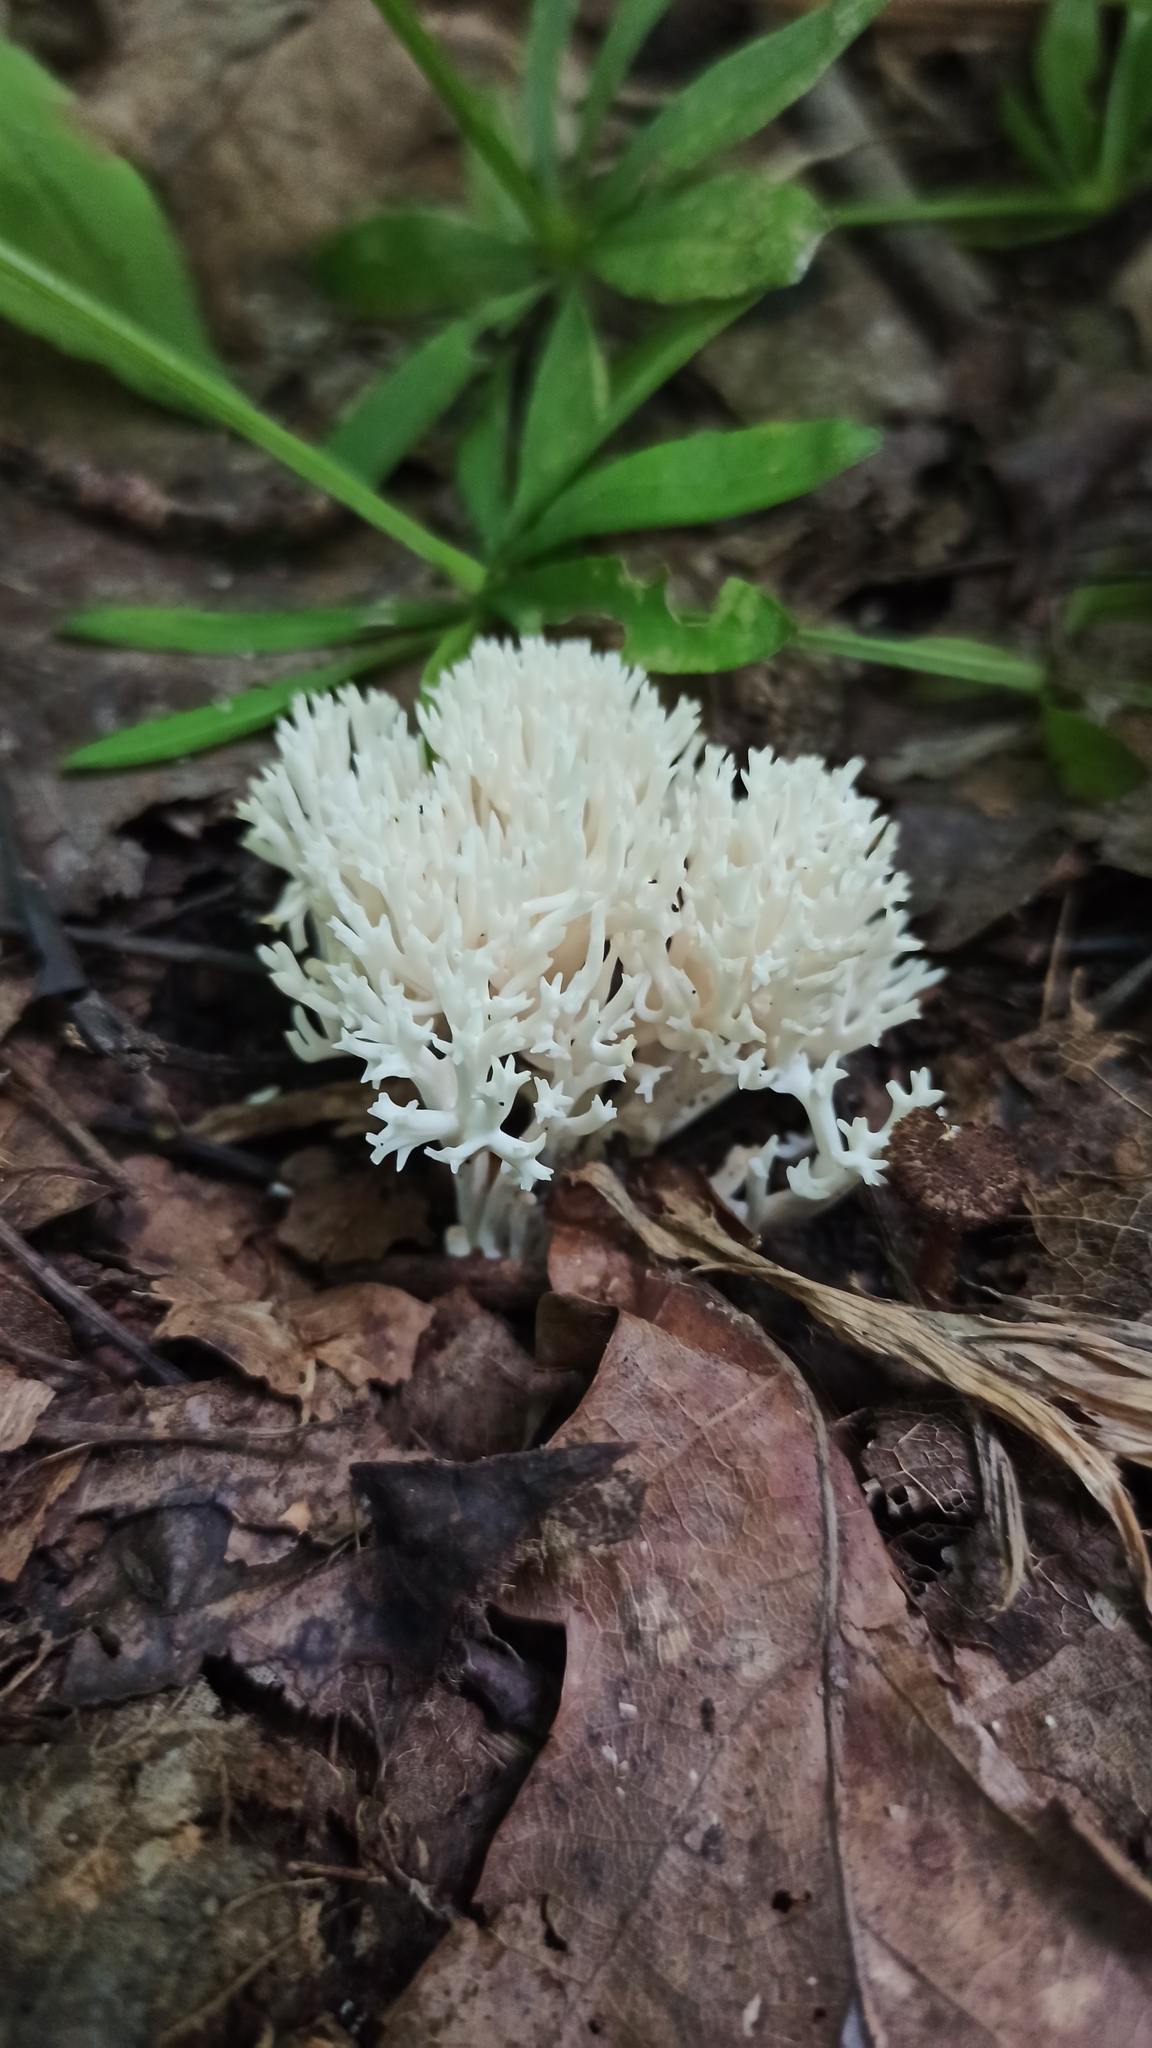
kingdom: Fungi
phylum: Basidiomycota
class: Agaricomycetes
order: Russulales
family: Hericiaceae
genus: Hericium
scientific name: Hericium coralloides
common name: Coral tooth
